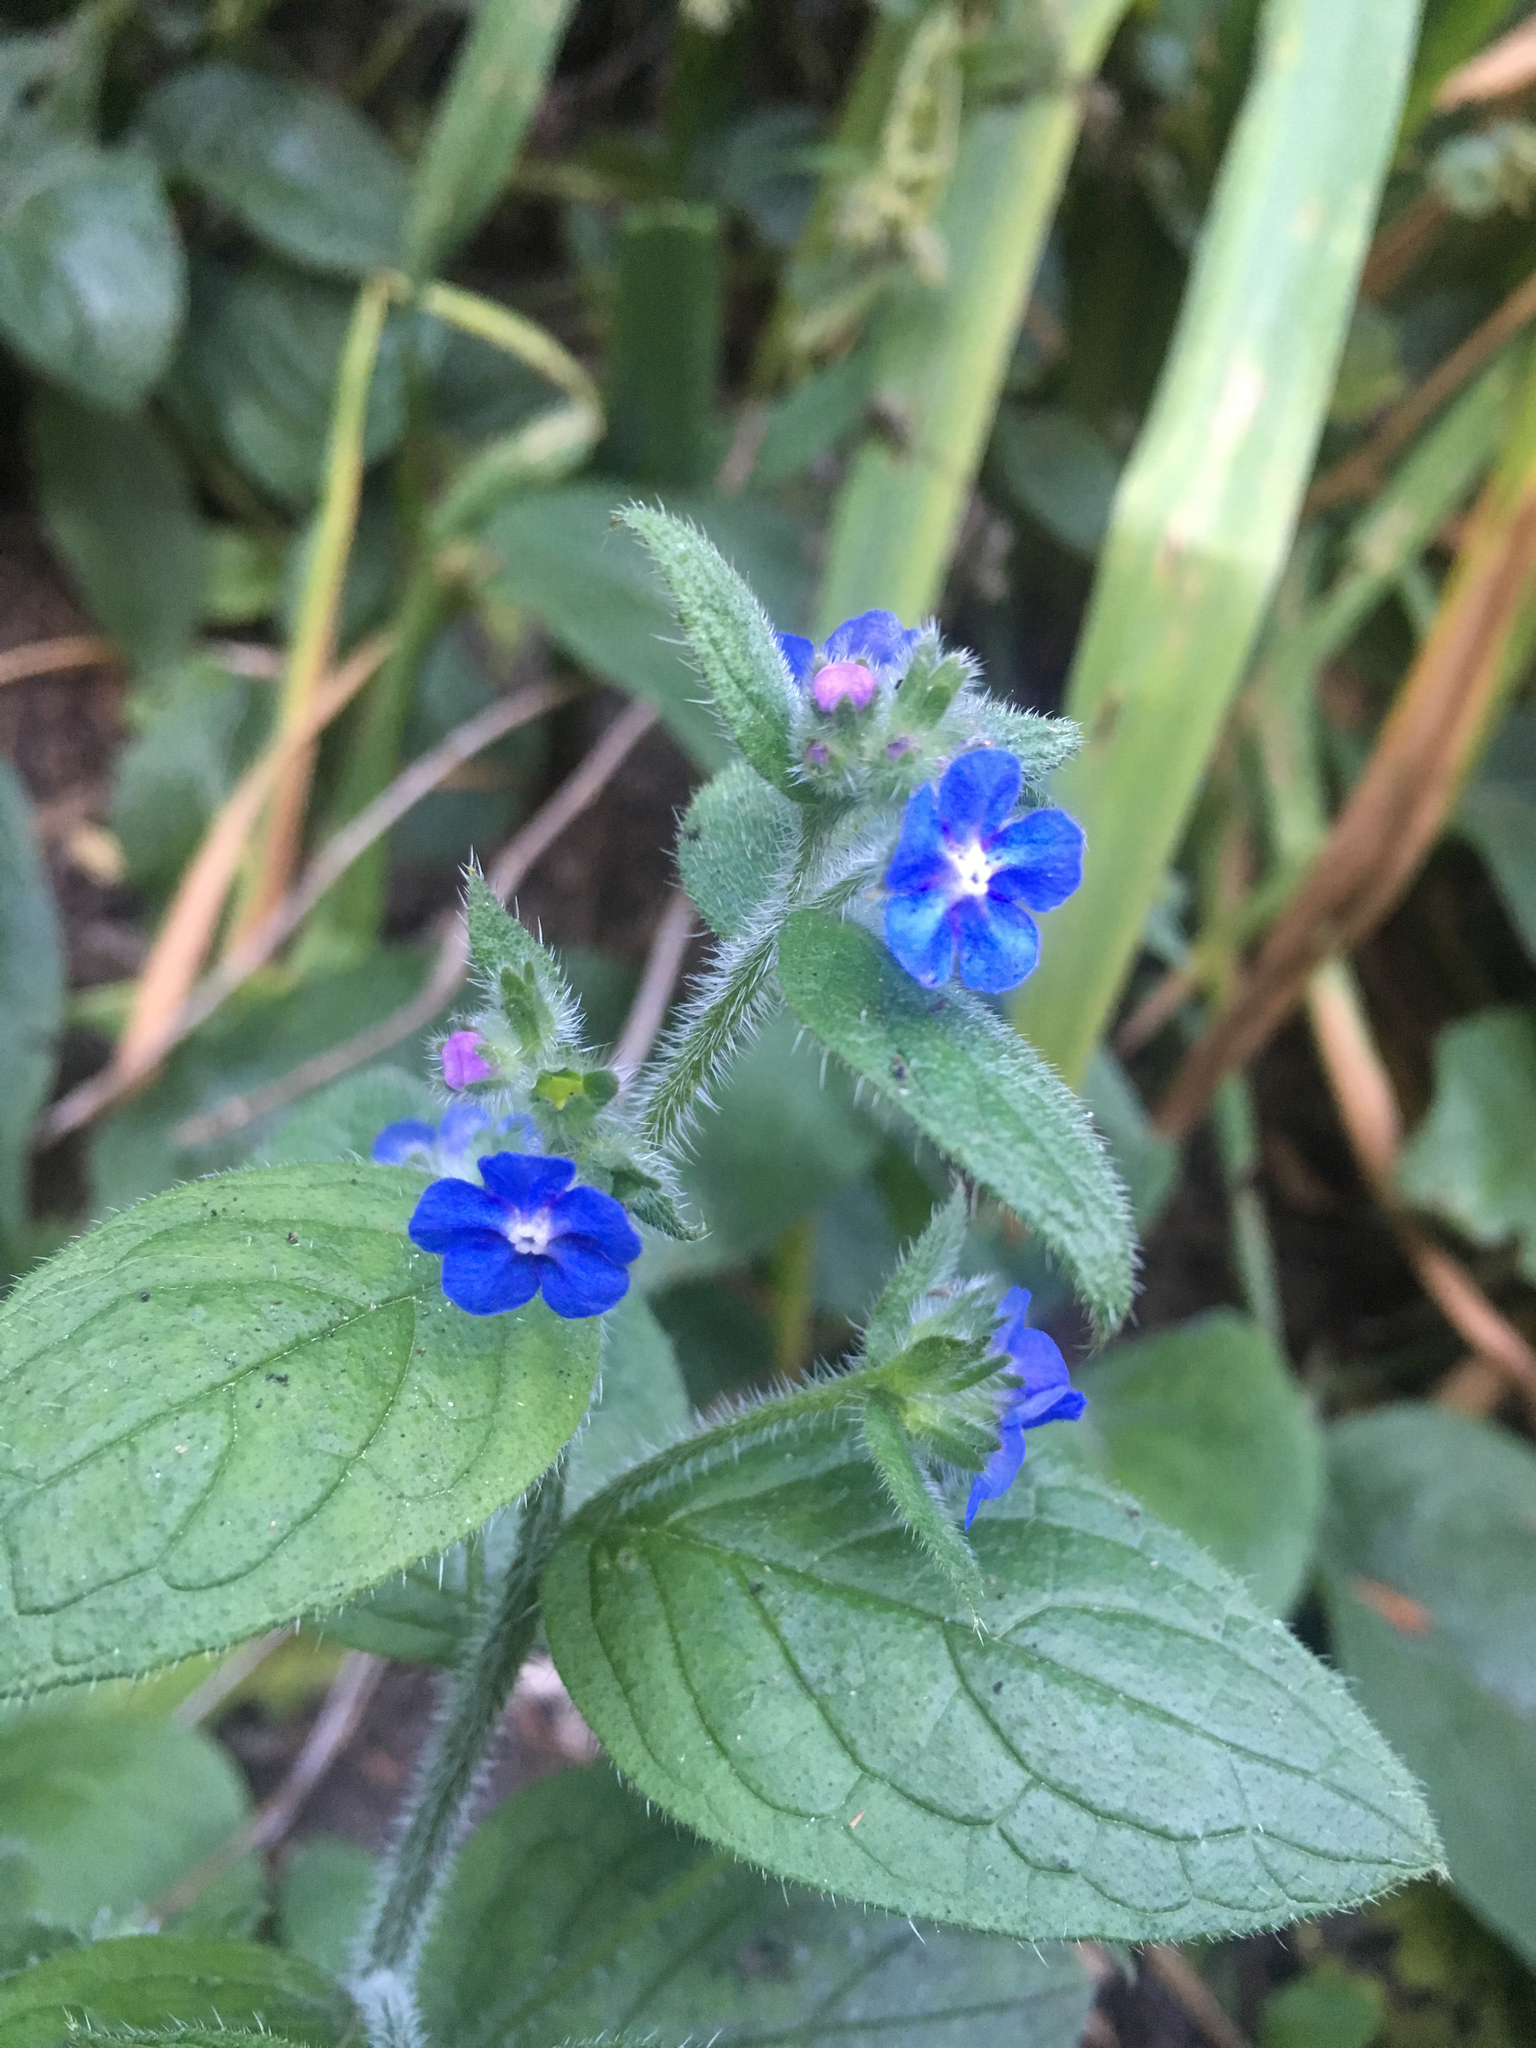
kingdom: Plantae
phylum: Tracheophyta
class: Magnoliopsida
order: Boraginales
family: Boraginaceae
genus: Pentaglottis
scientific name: Pentaglottis sempervirens
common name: Green alkanet
